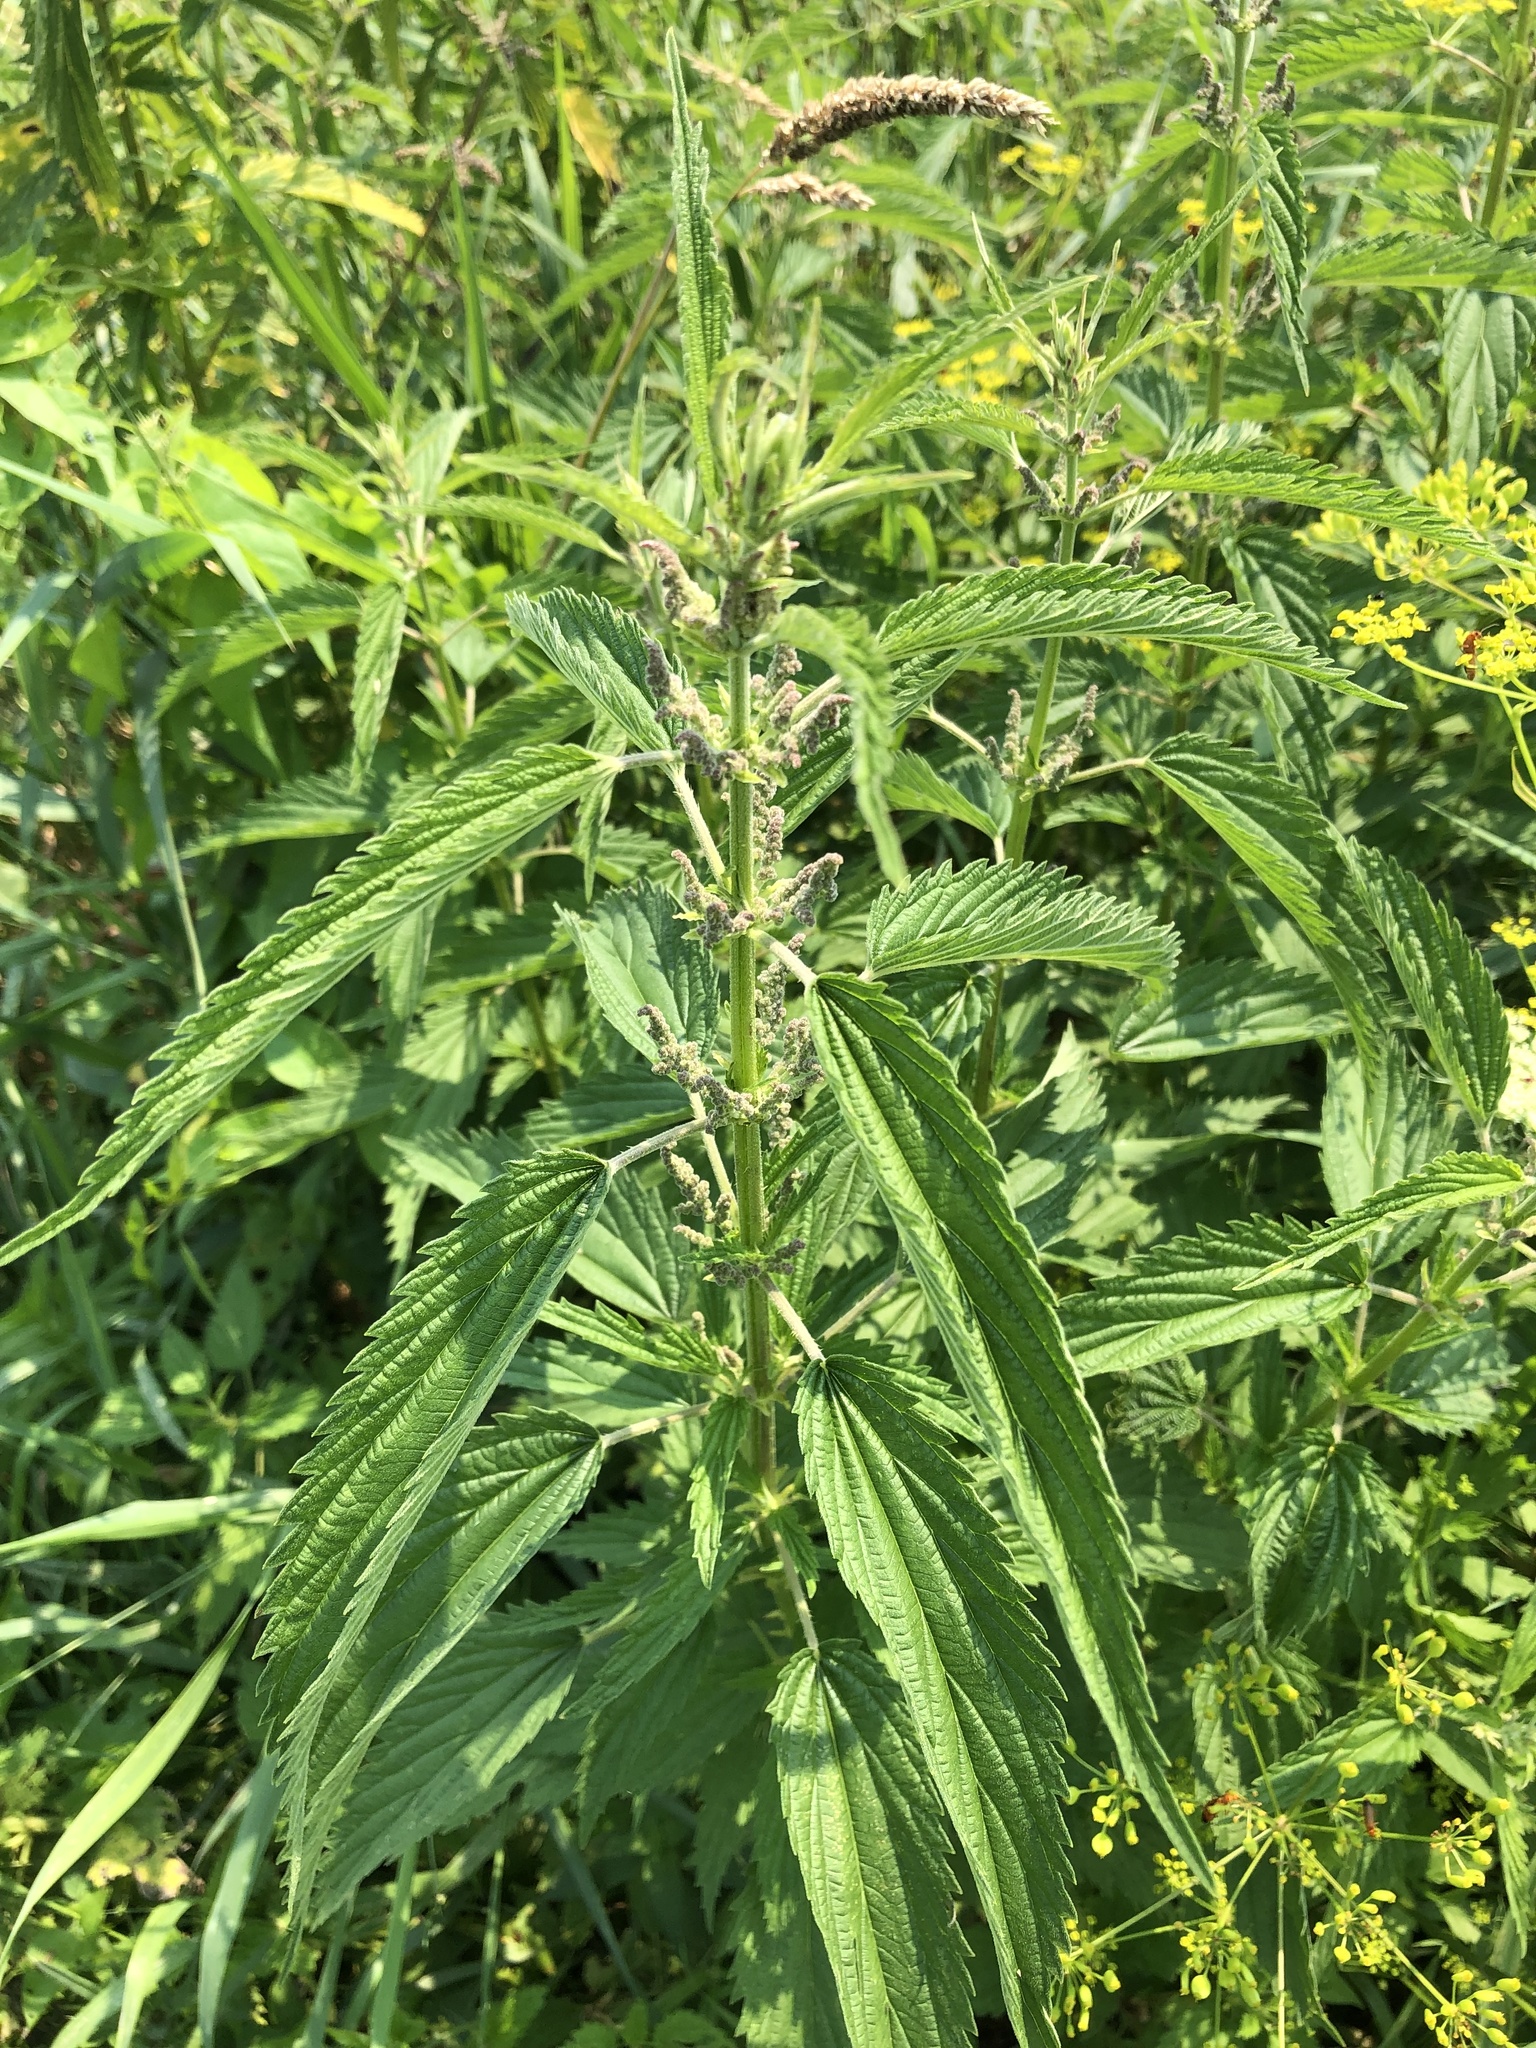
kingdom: Plantae
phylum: Tracheophyta
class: Magnoliopsida
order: Rosales
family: Urticaceae
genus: Urtica
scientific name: Urtica dioica
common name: Common nettle
